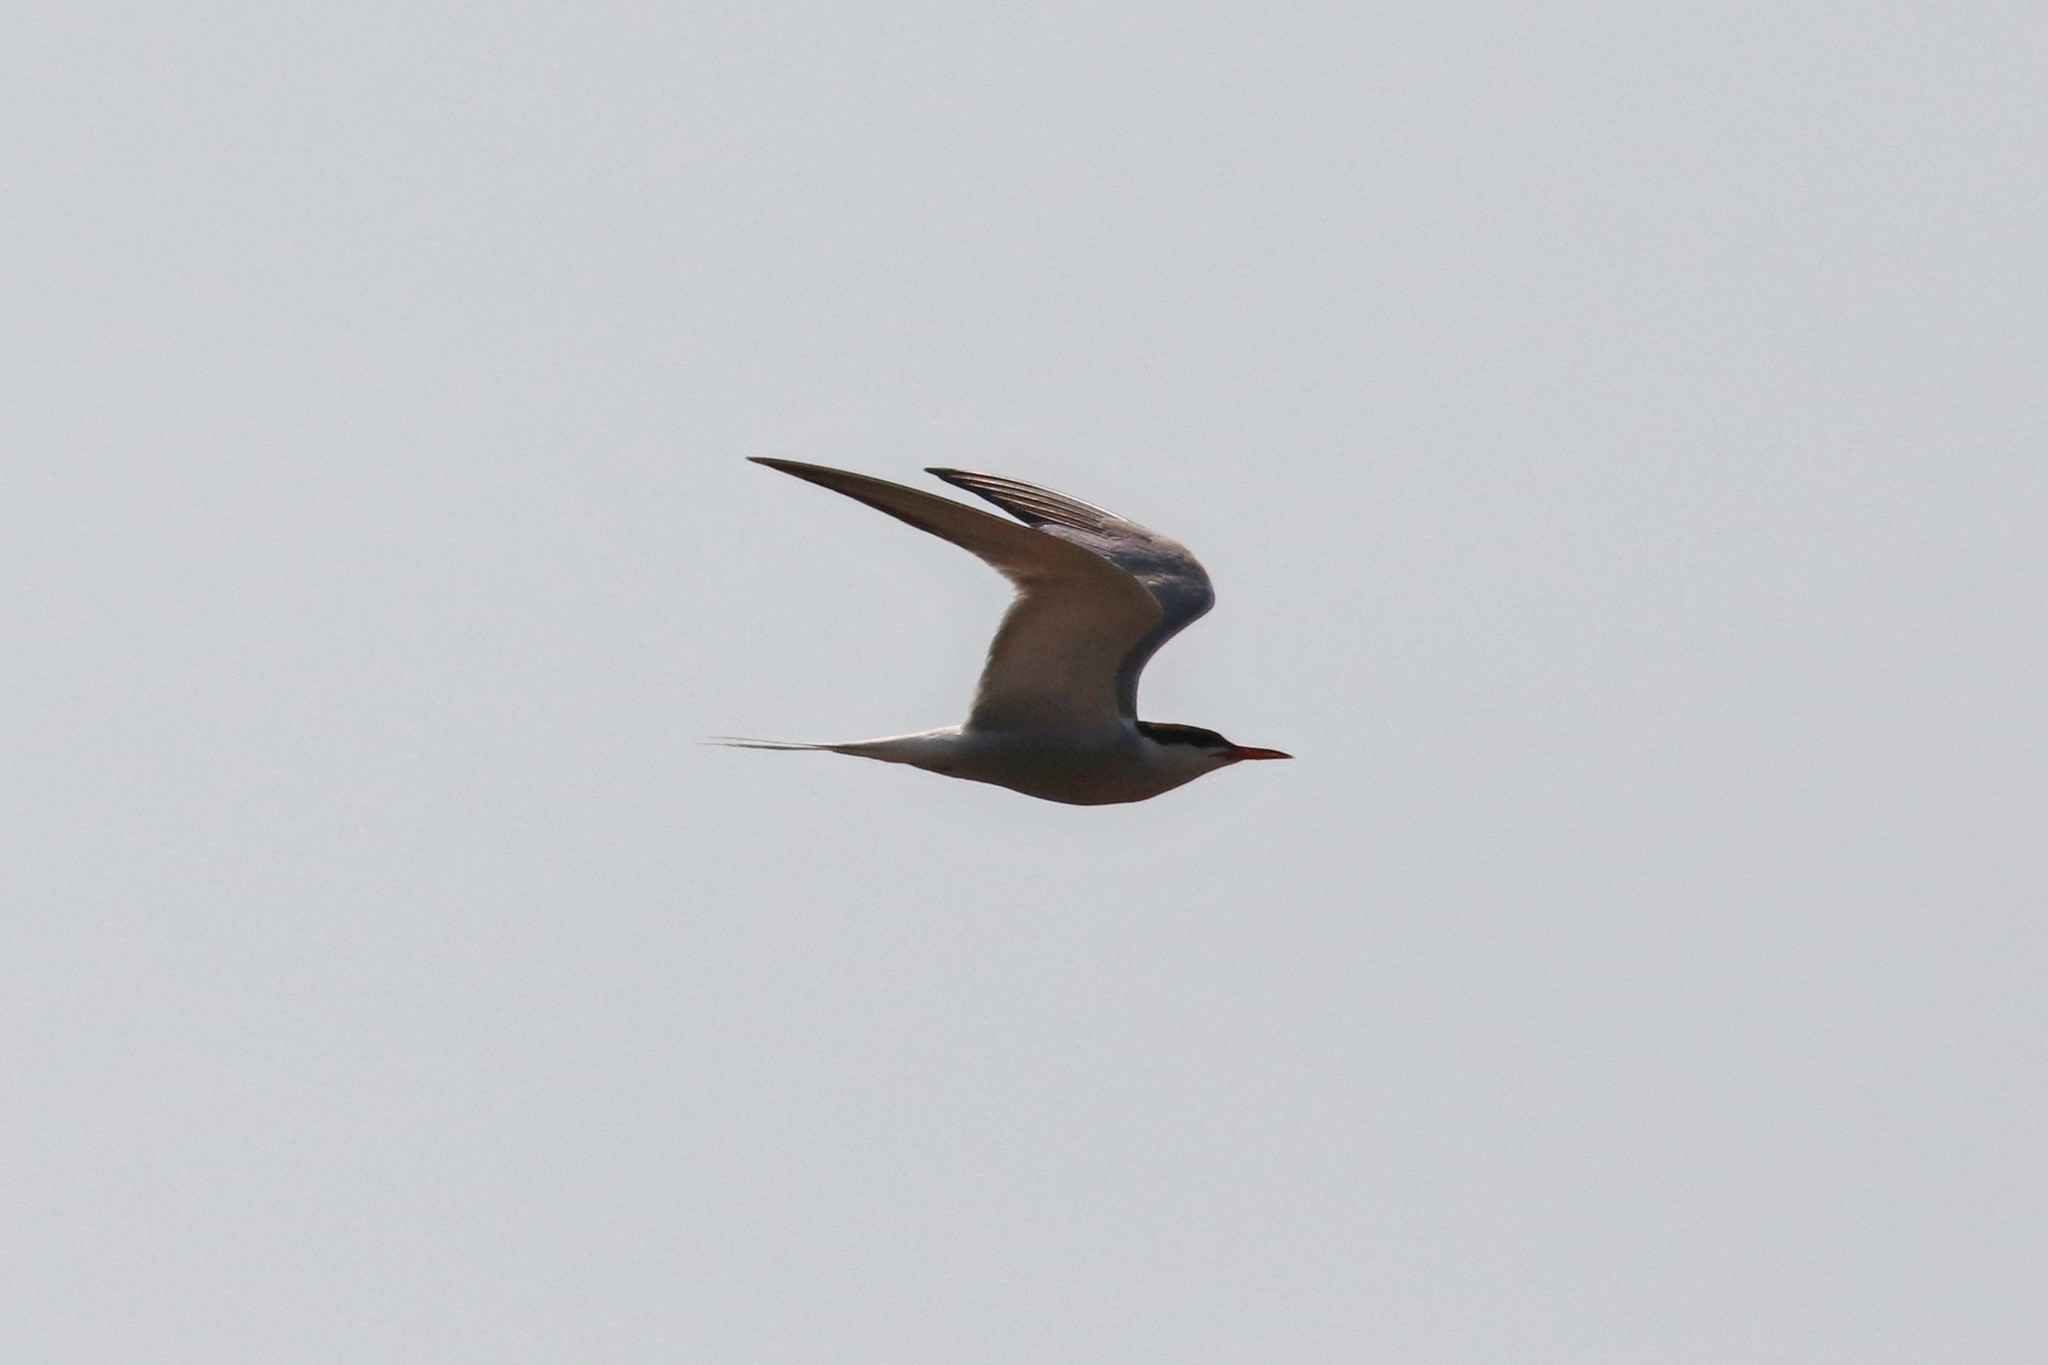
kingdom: Animalia
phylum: Chordata
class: Aves
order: Charadriiformes
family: Laridae
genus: Sterna
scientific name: Sterna hirundo
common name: Common tern
